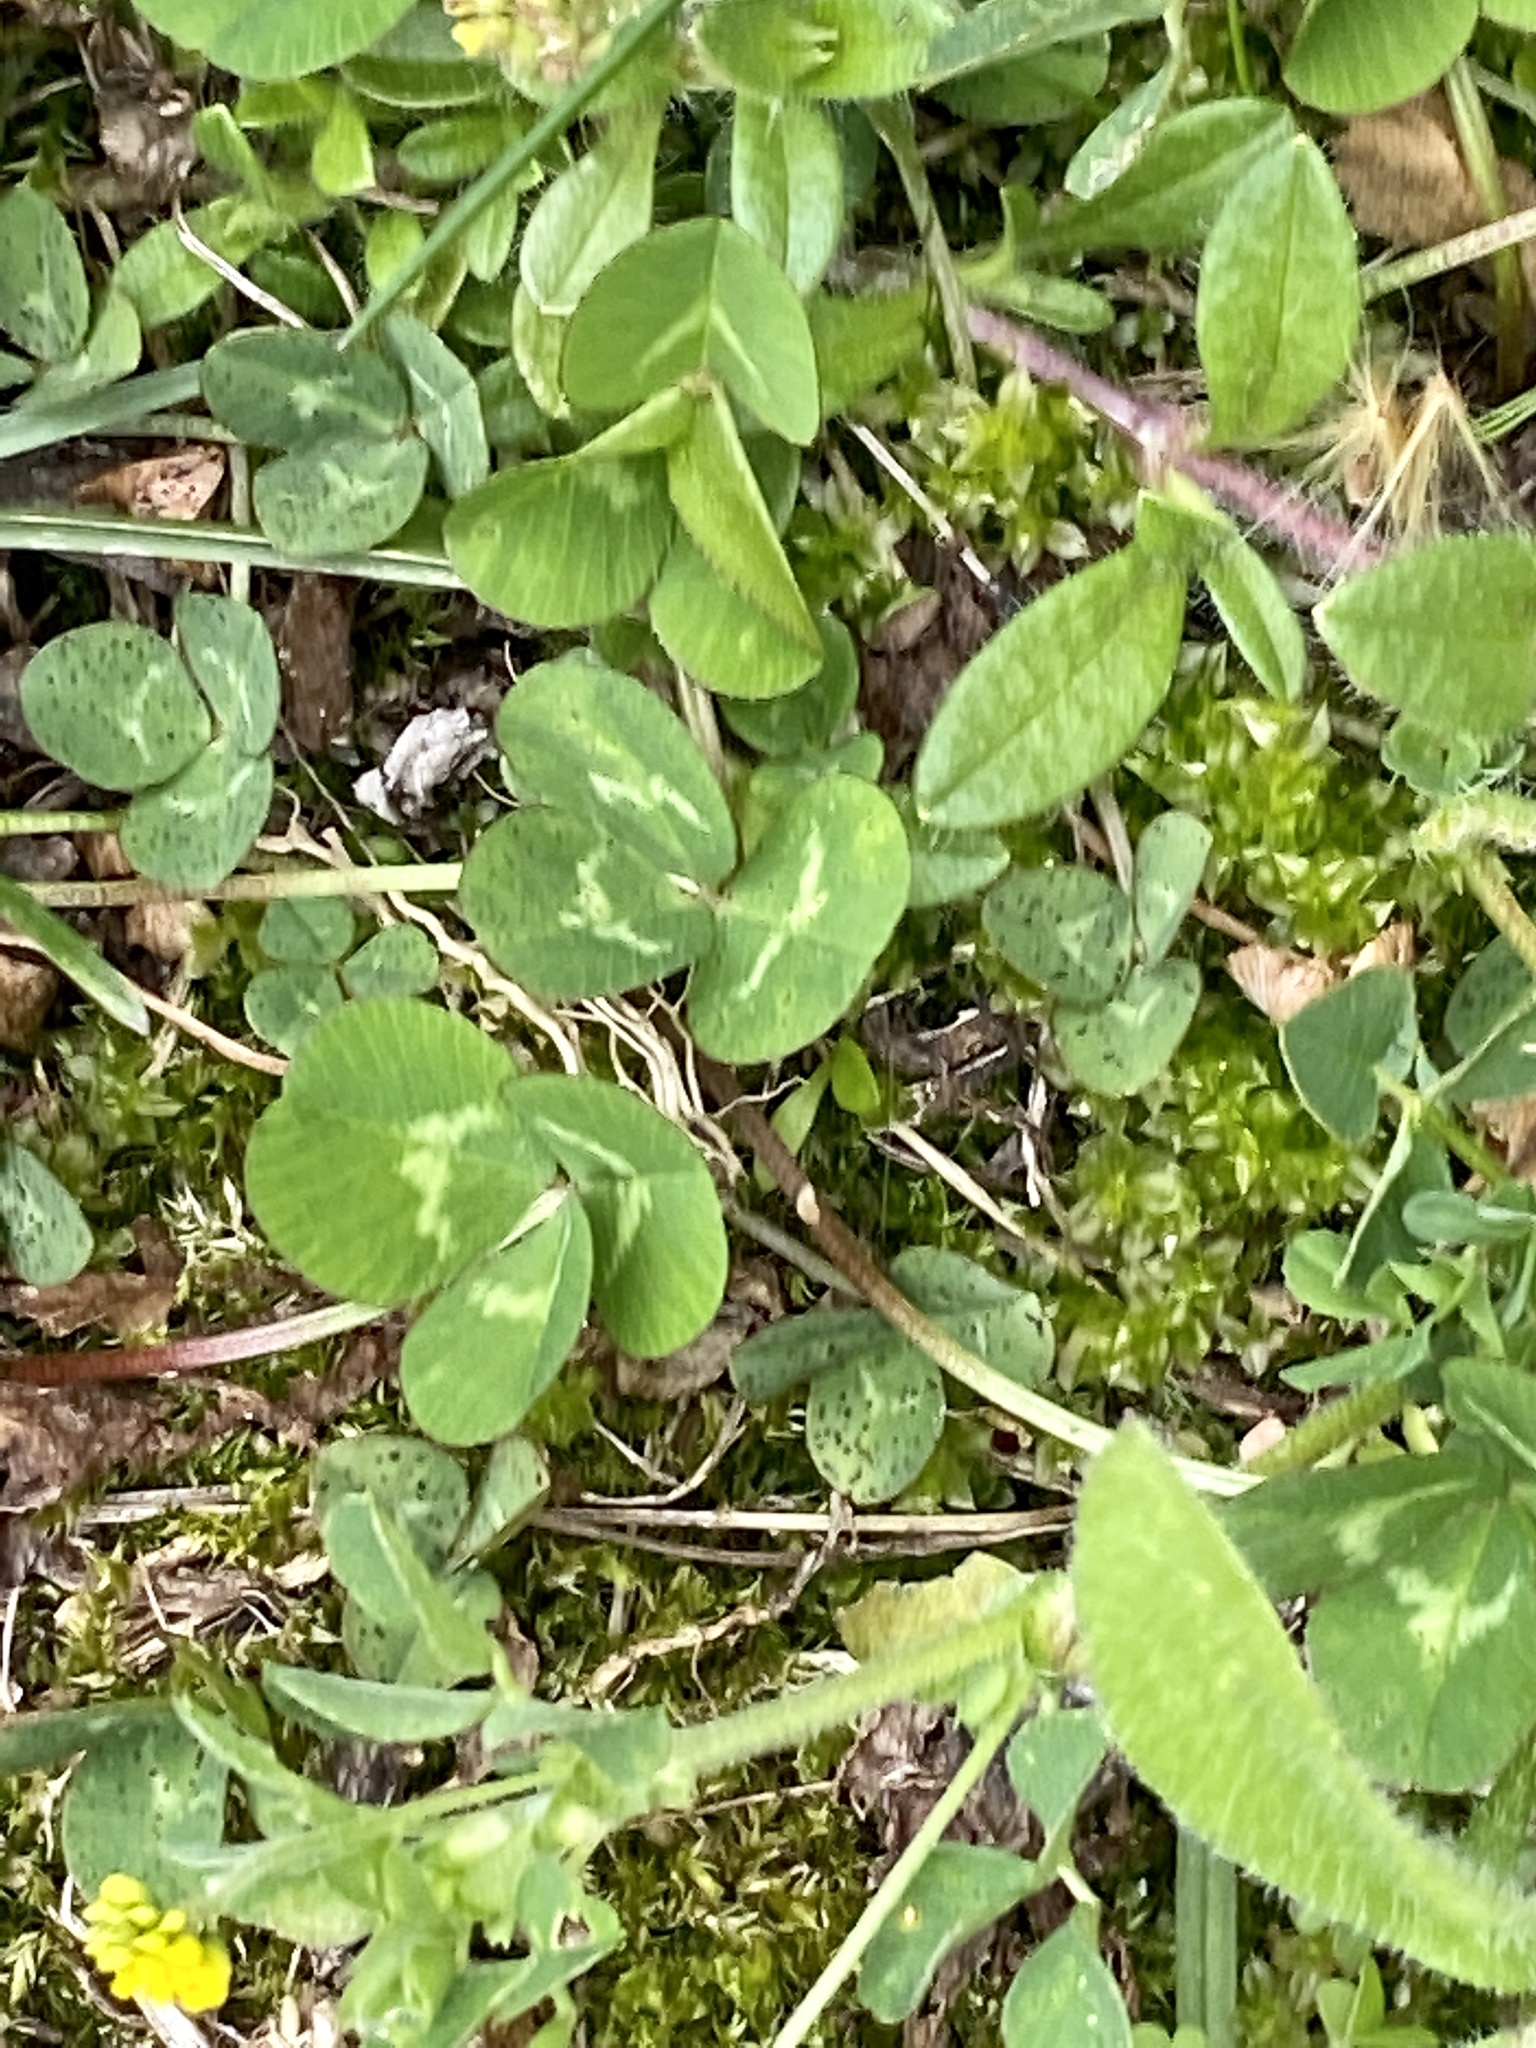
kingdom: Plantae
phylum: Tracheophyta
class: Magnoliopsida
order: Fabales
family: Fabaceae
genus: Trifolium
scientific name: Trifolium repens
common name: White clover
